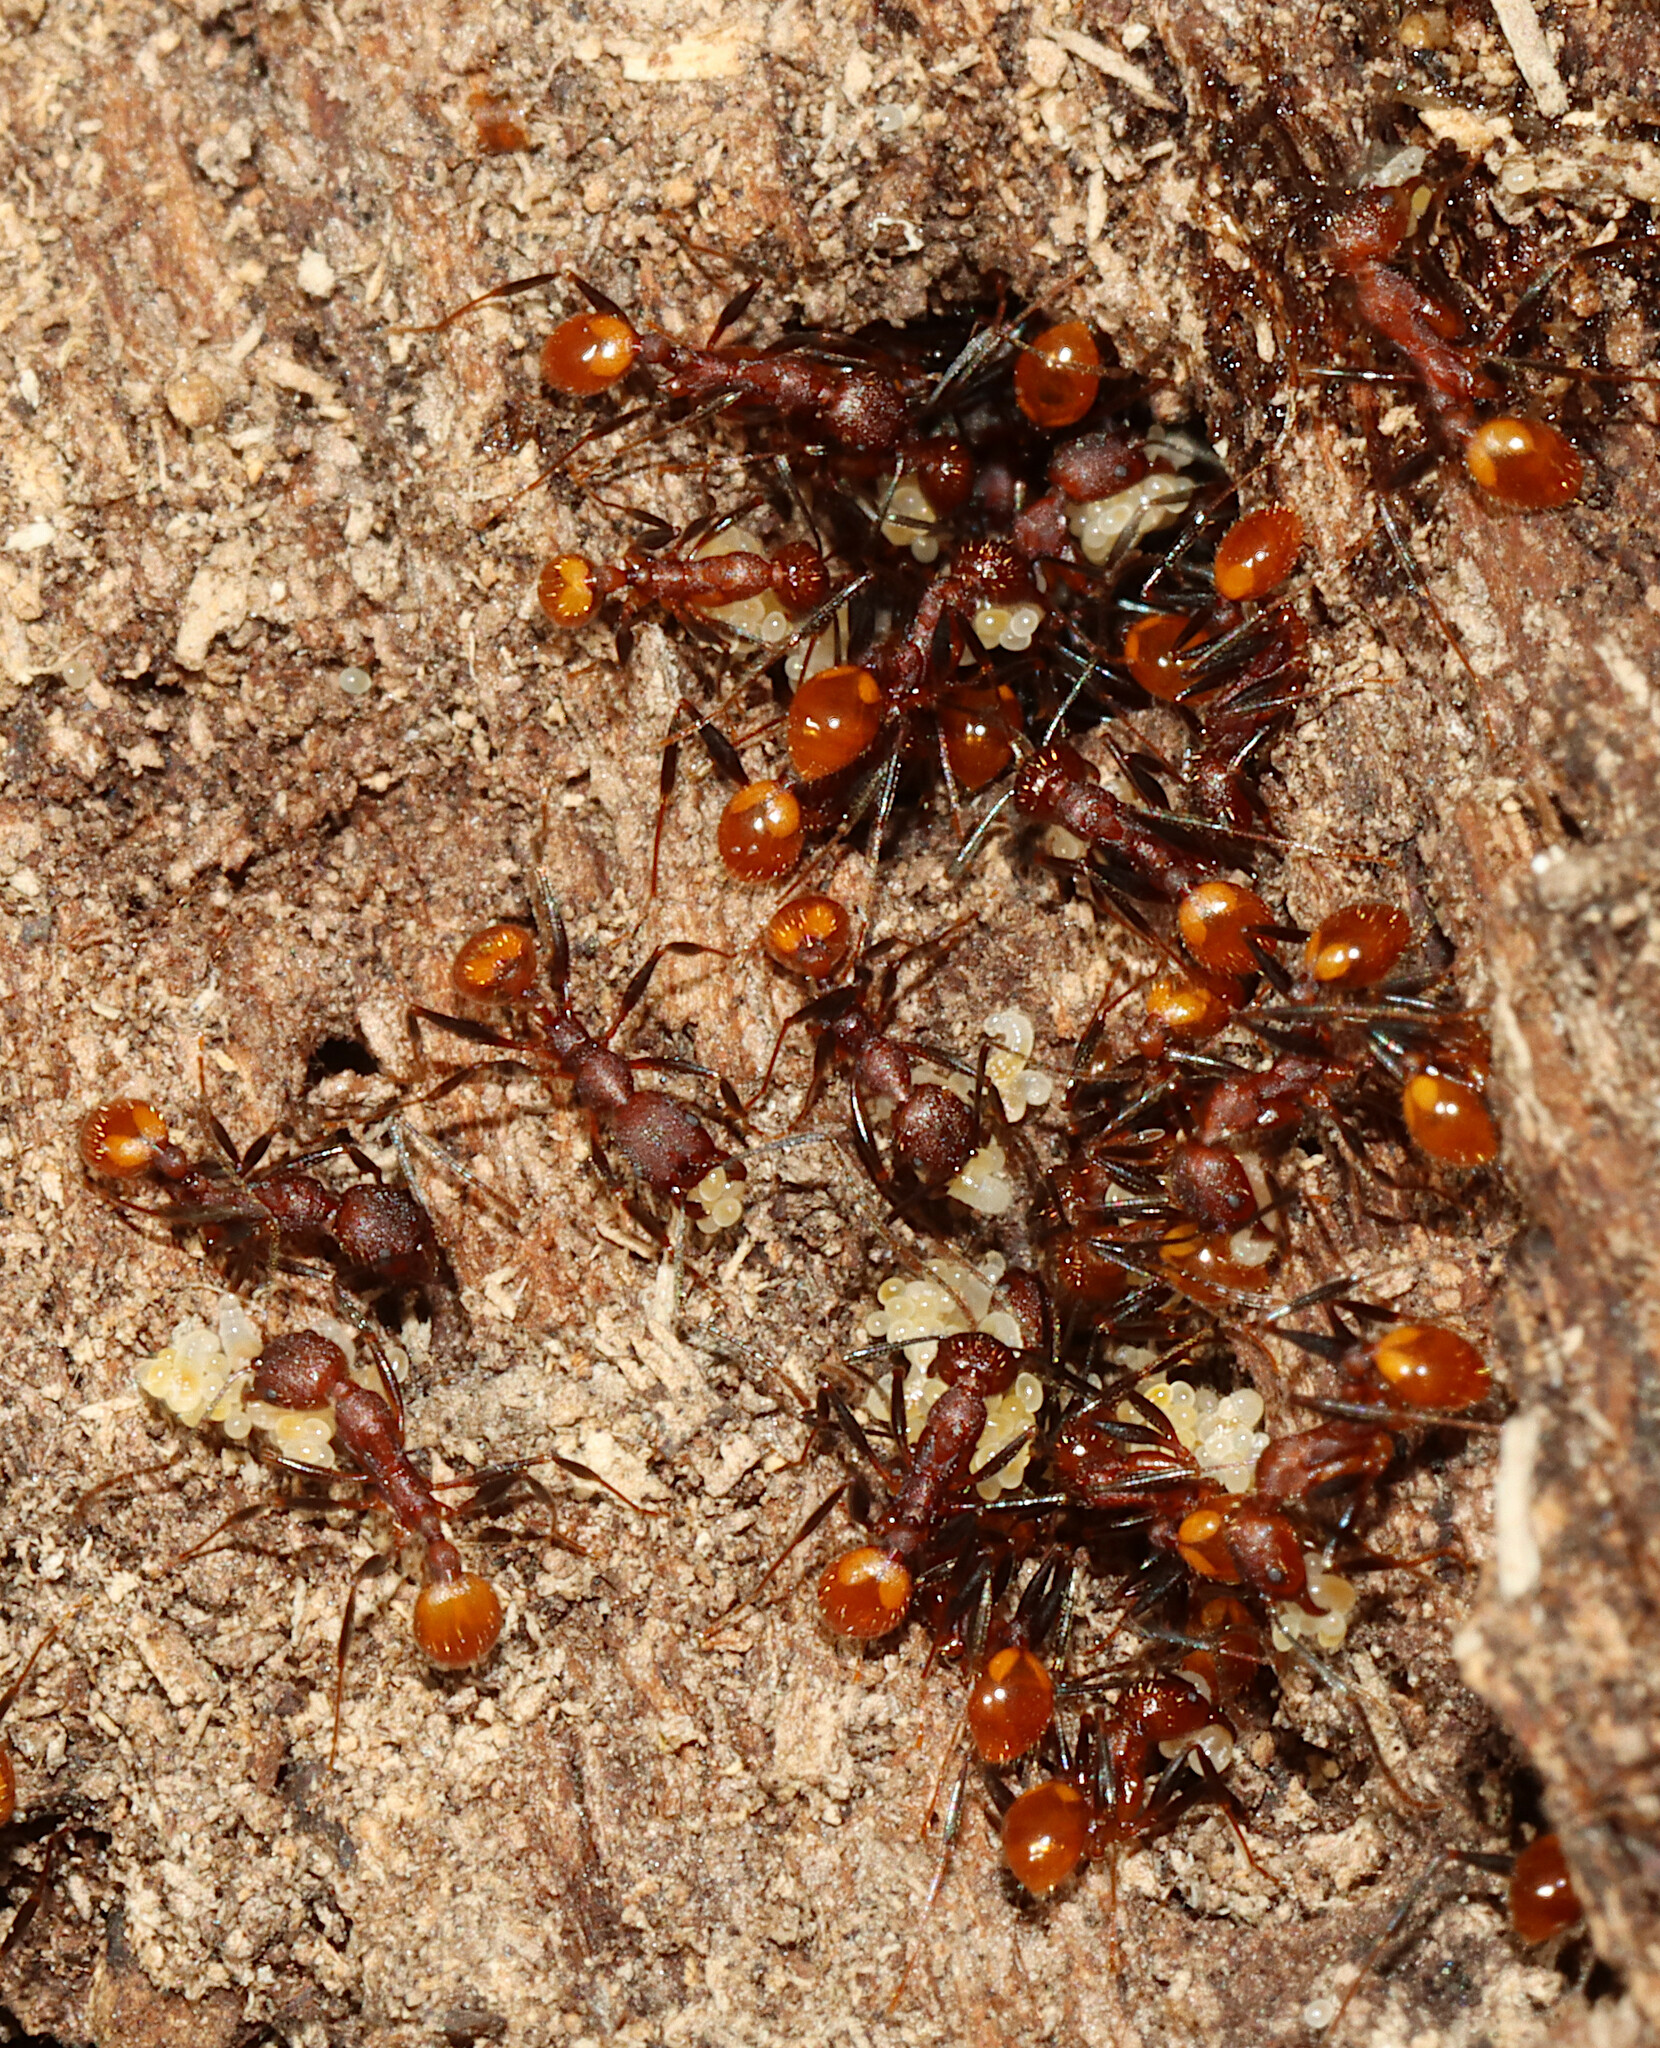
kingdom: Animalia
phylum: Arthropoda
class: Insecta
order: Hymenoptera
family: Formicidae
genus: Aphaenogaster
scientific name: Aphaenogaster lamellidens
